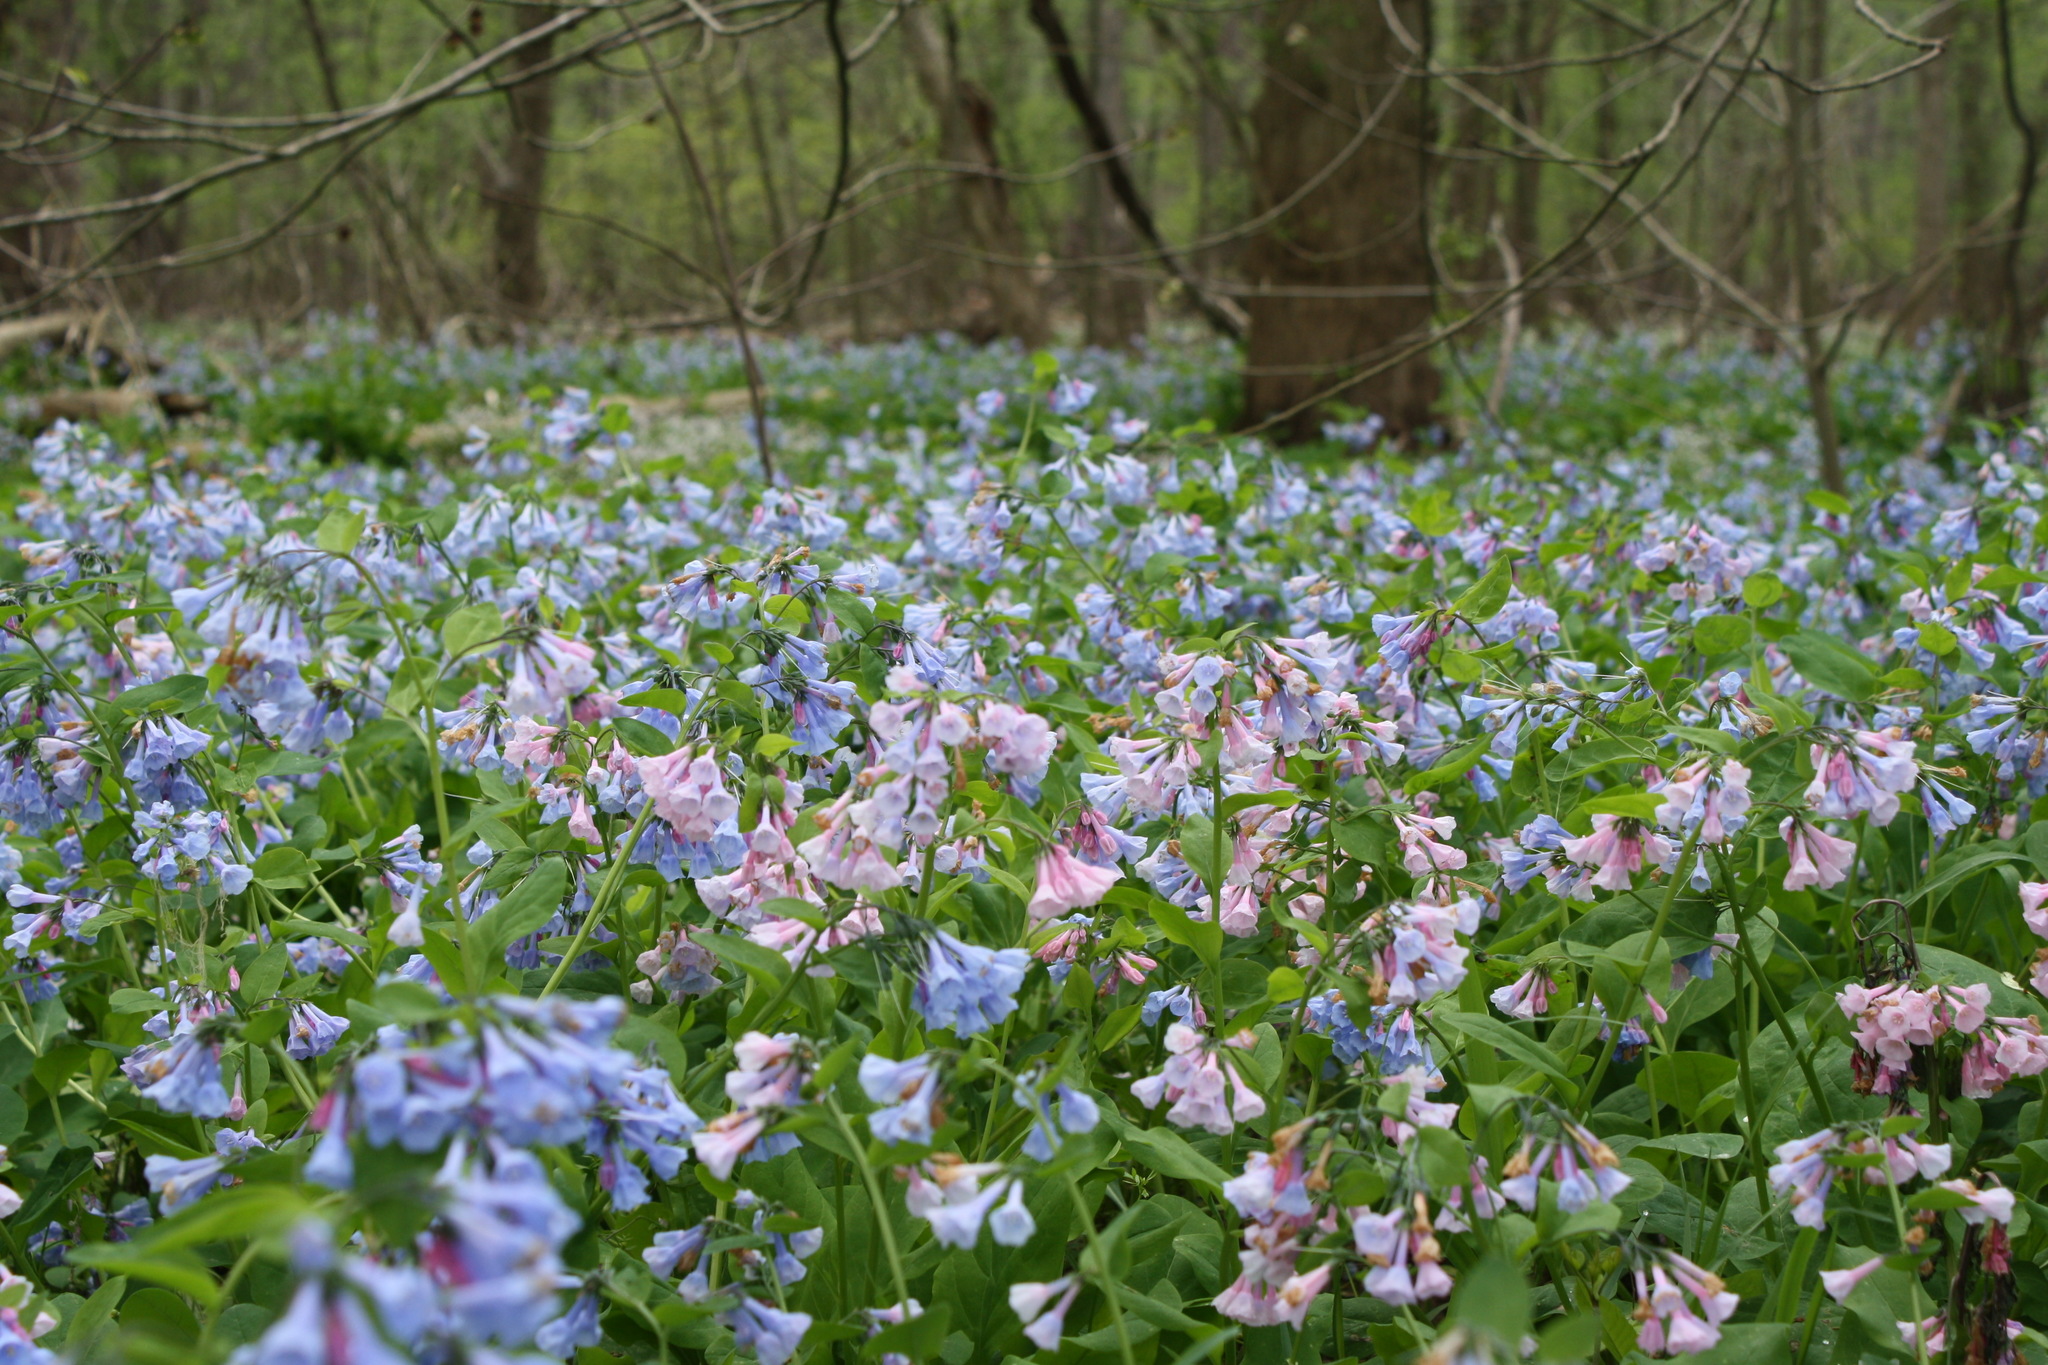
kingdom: Plantae
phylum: Tracheophyta
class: Magnoliopsida
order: Boraginales
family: Boraginaceae
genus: Mertensia
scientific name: Mertensia virginica
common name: Virginia bluebells
